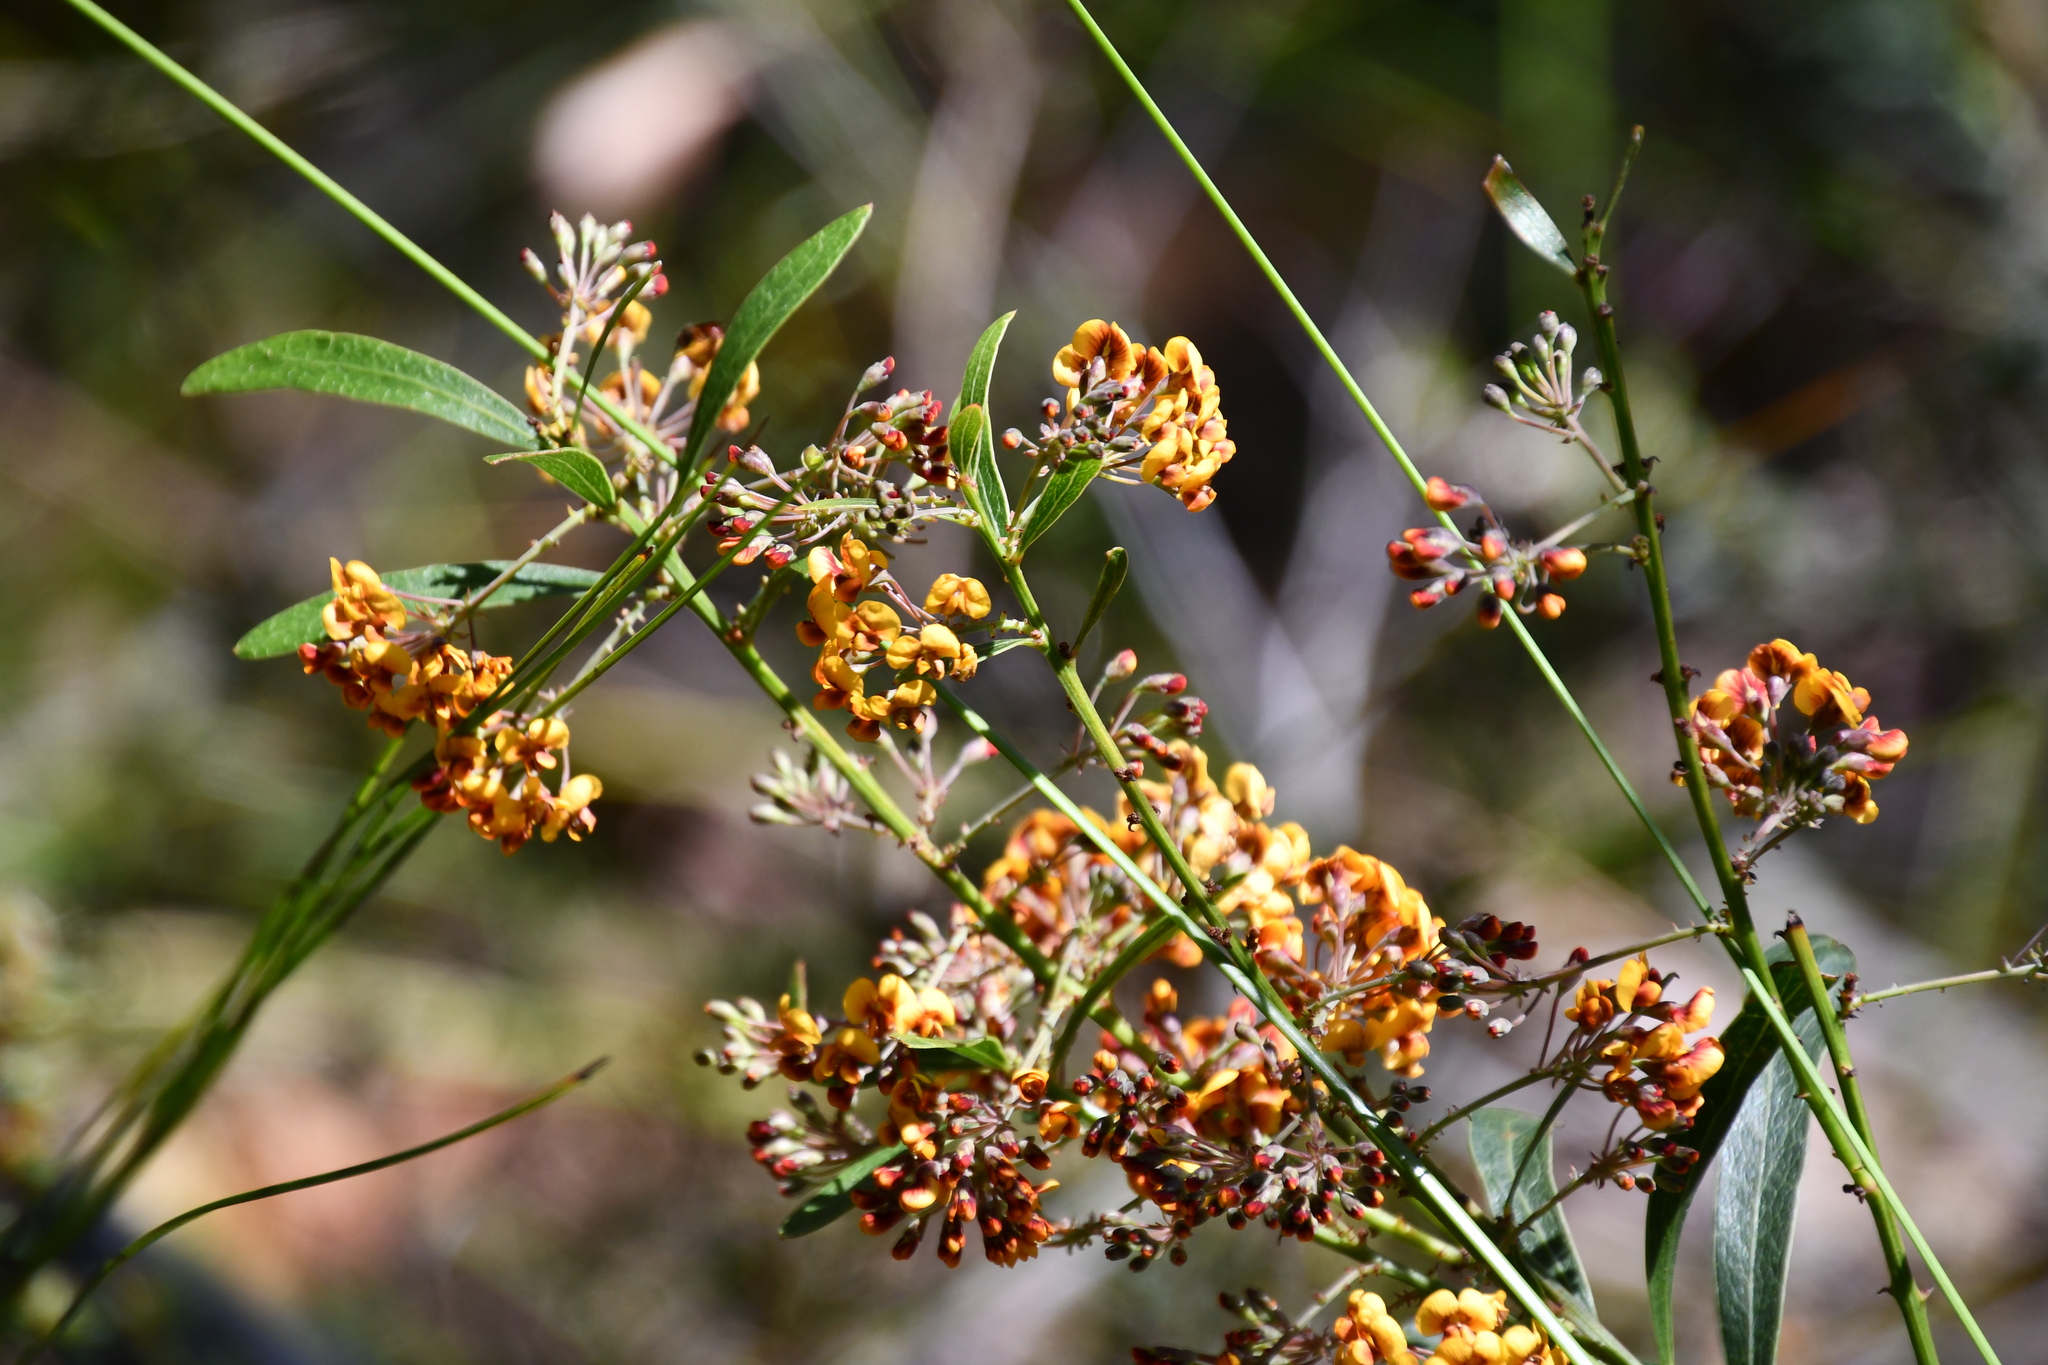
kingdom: Plantae
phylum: Tracheophyta
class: Magnoliopsida
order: Fabales
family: Fabaceae
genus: Daviesia
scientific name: Daviesia corymbosa
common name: Narrow-leaf bitter-pea
